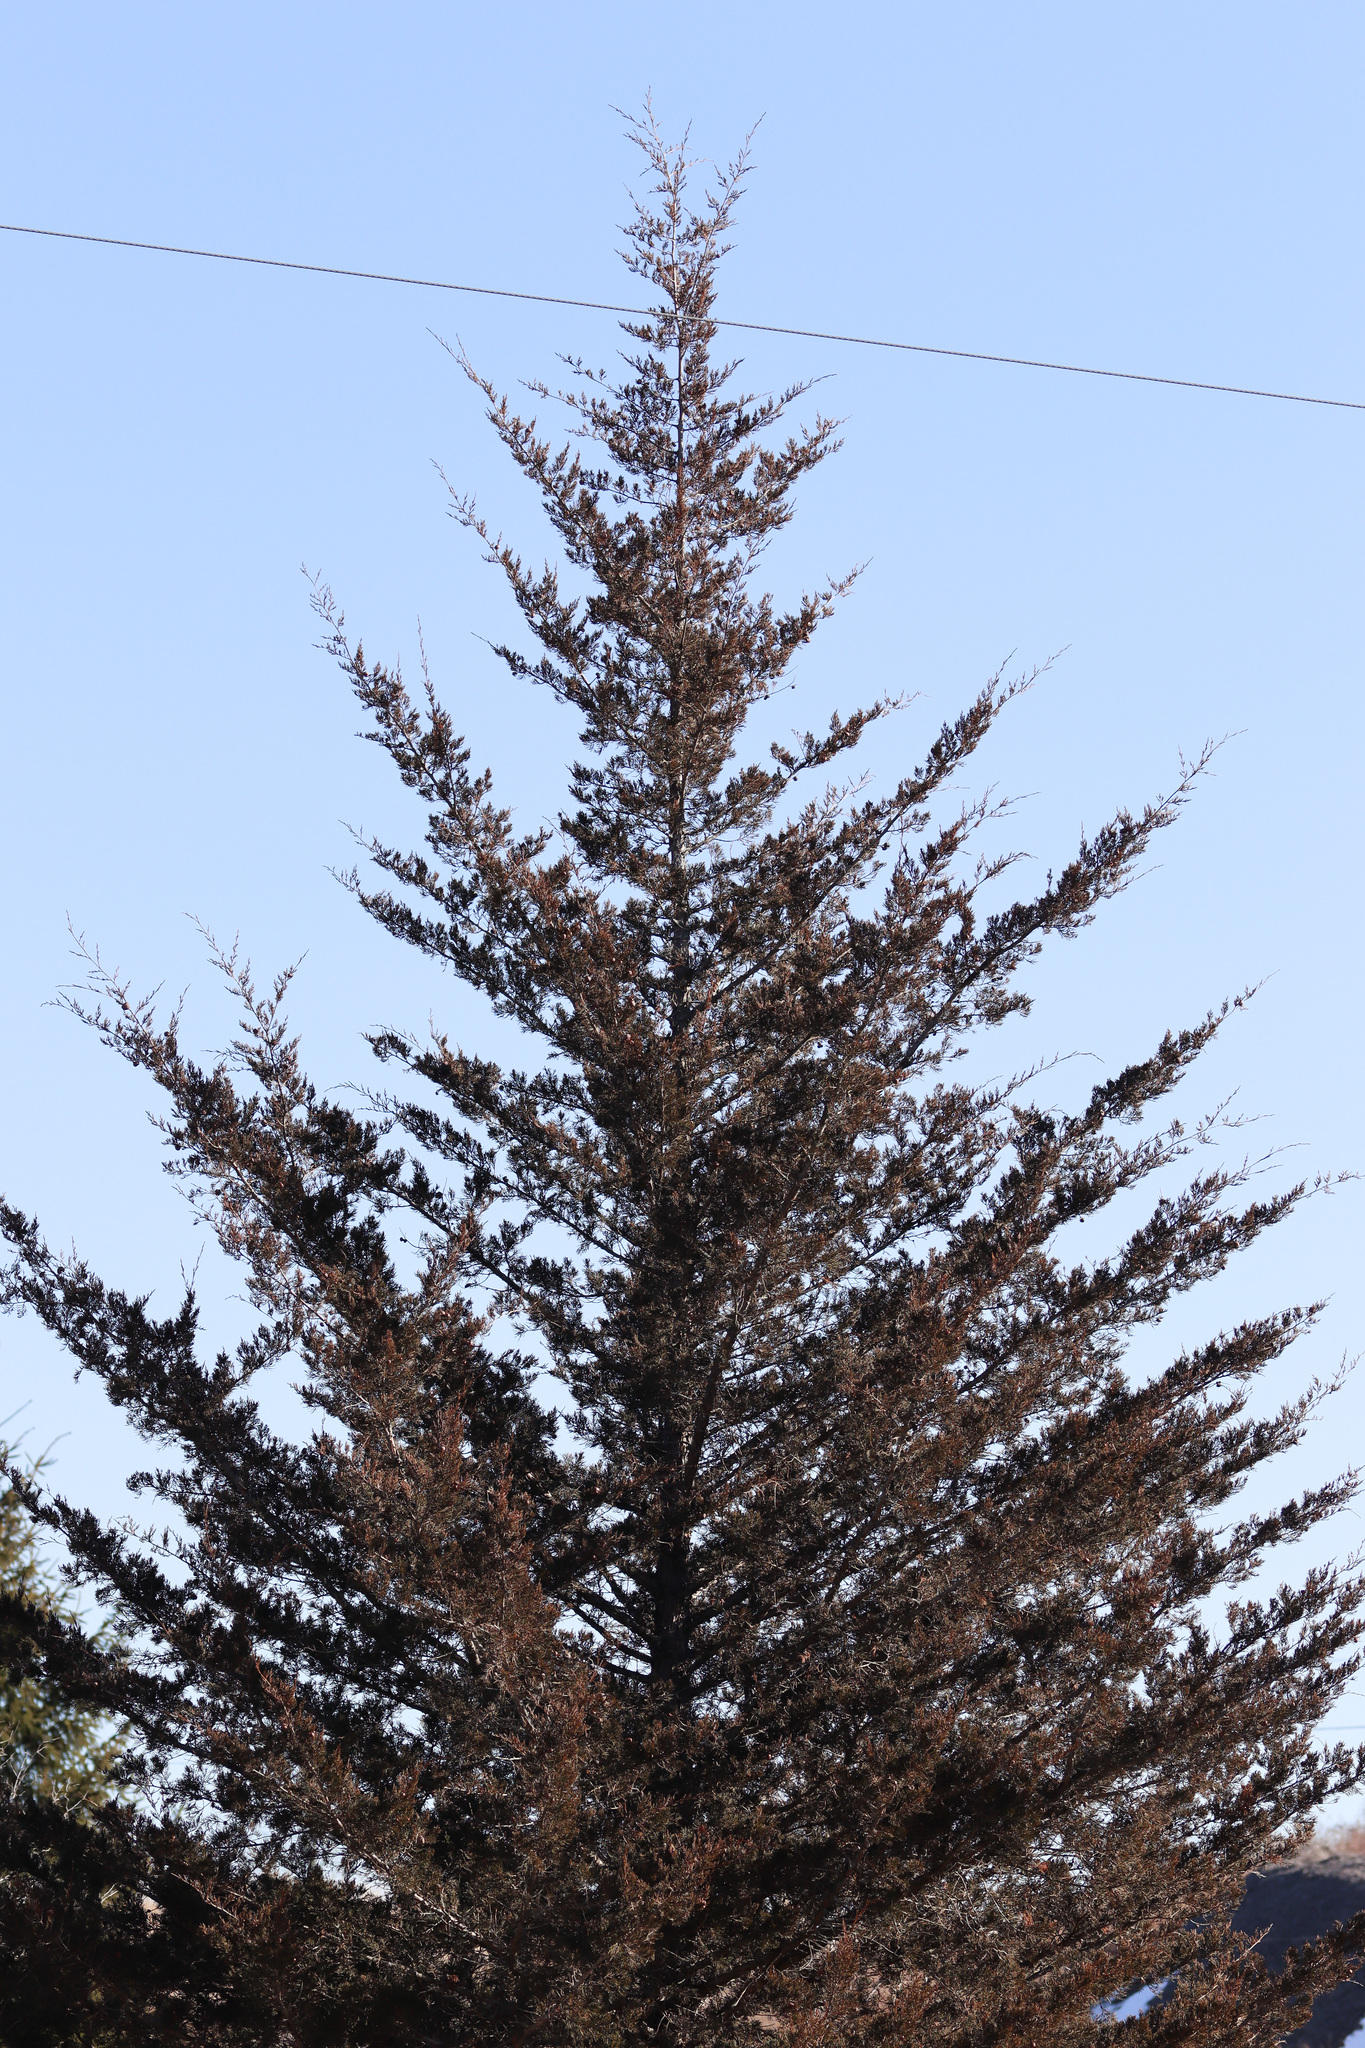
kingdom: Plantae
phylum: Tracheophyta
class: Pinopsida
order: Pinales
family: Cupressaceae
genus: Juniperus
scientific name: Juniperus virginiana
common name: Red juniper
